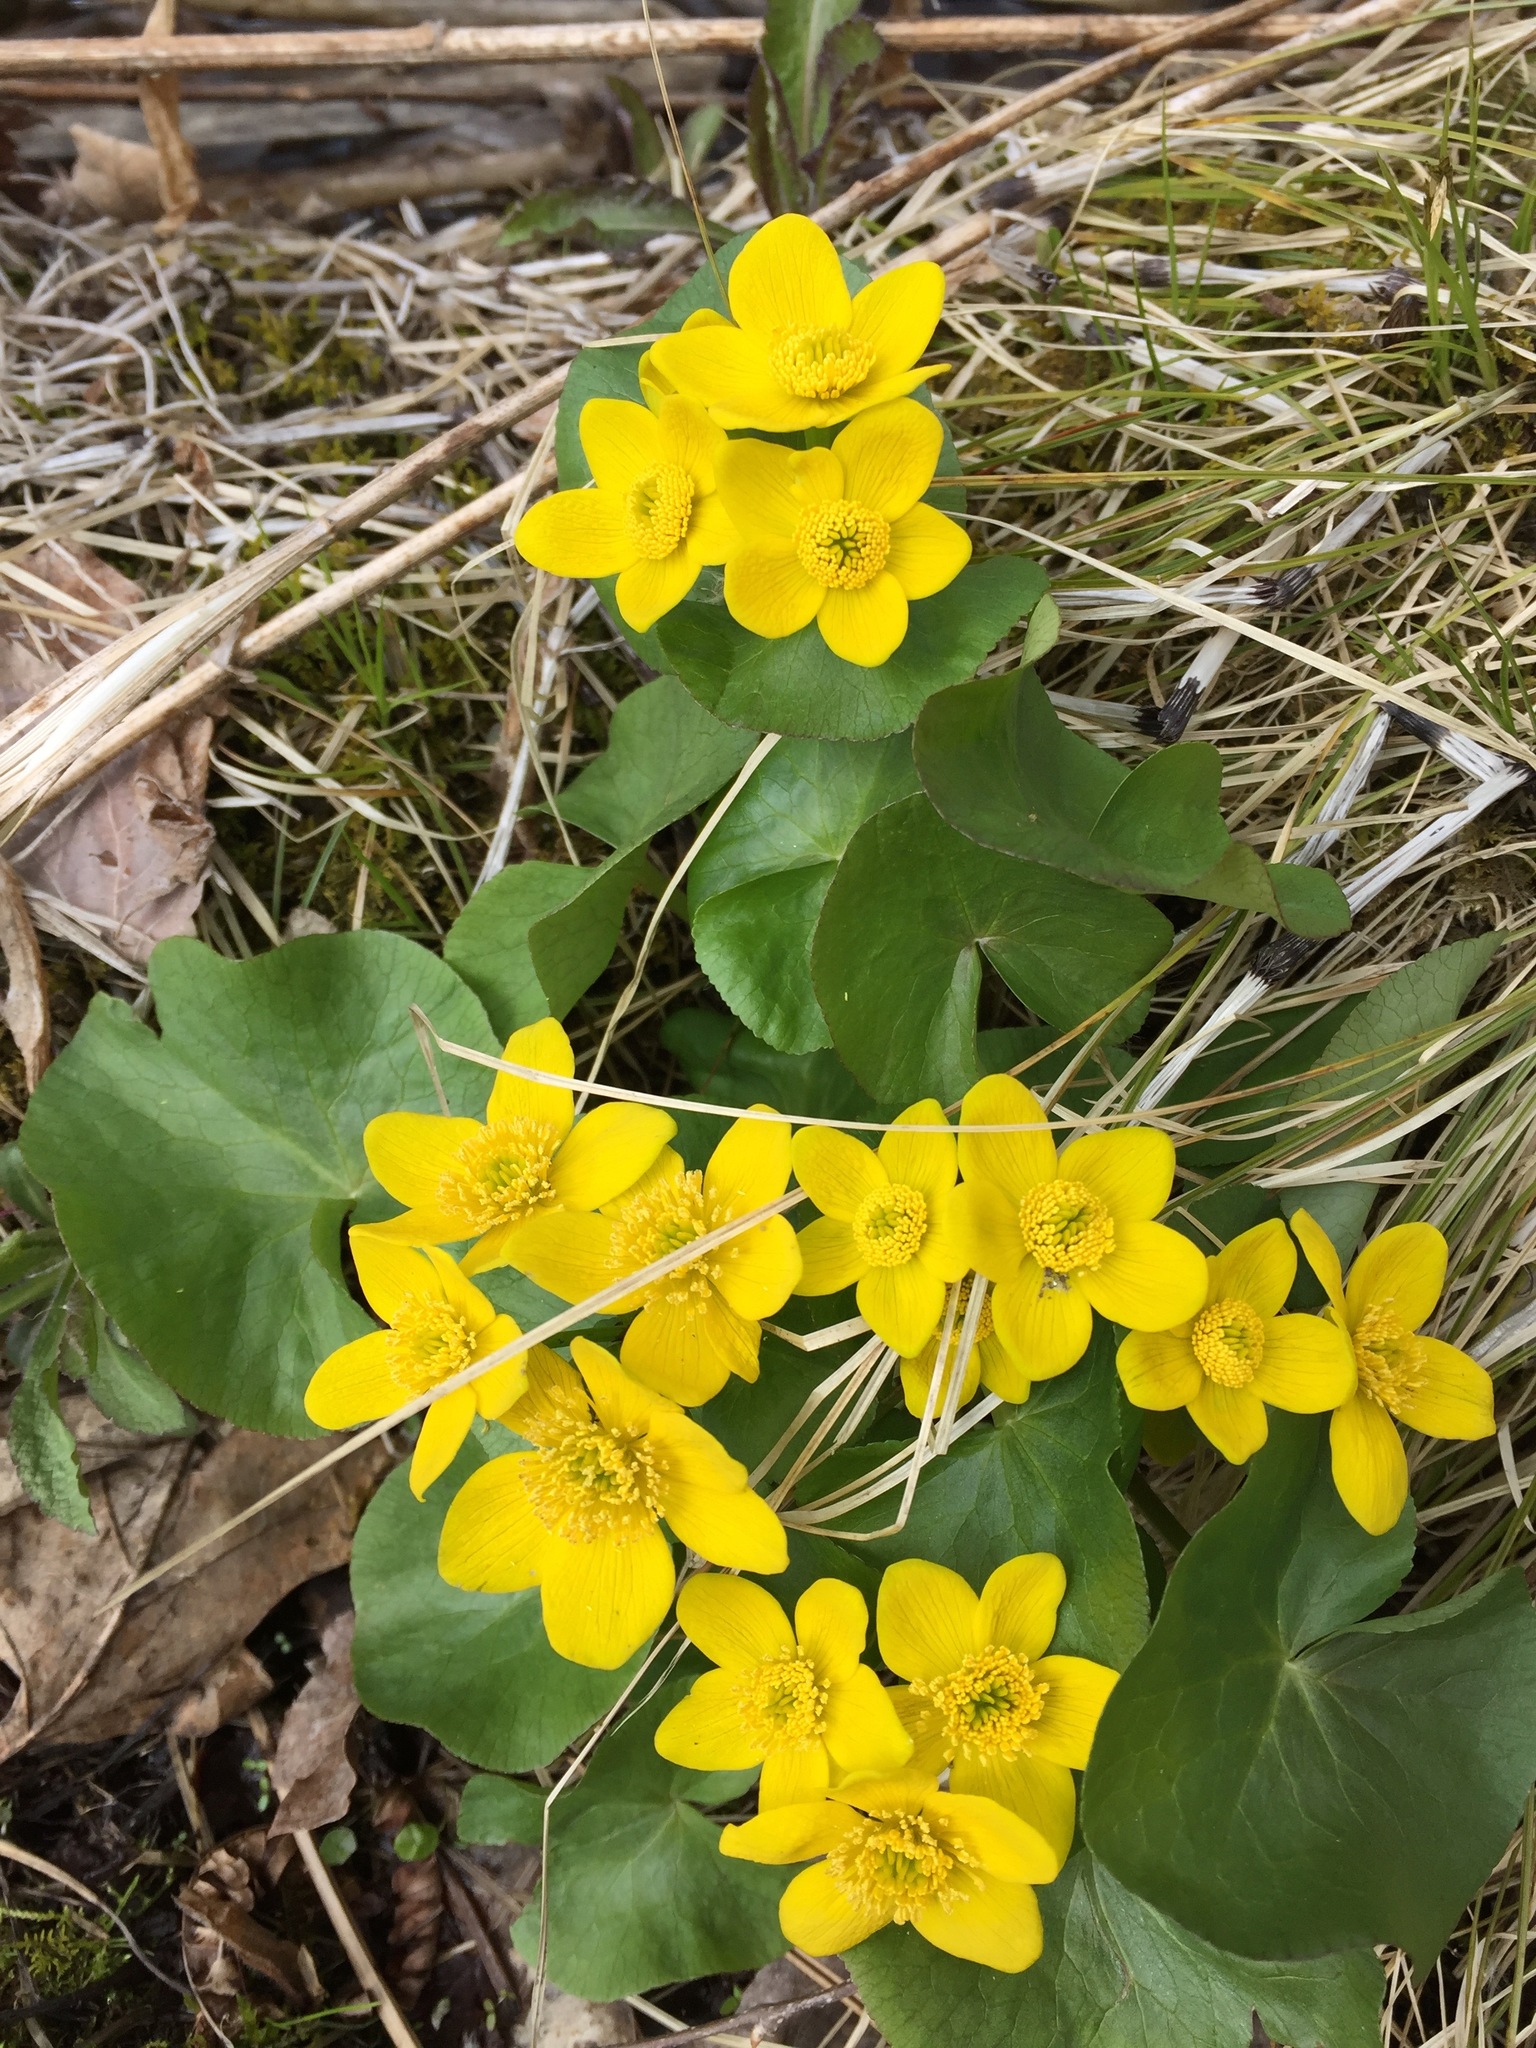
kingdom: Plantae
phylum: Tracheophyta
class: Magnoliopsida
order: Ranunculales
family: Ranunculaceae
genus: Caltha
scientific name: Caltha palustris
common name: Marsh marigold
